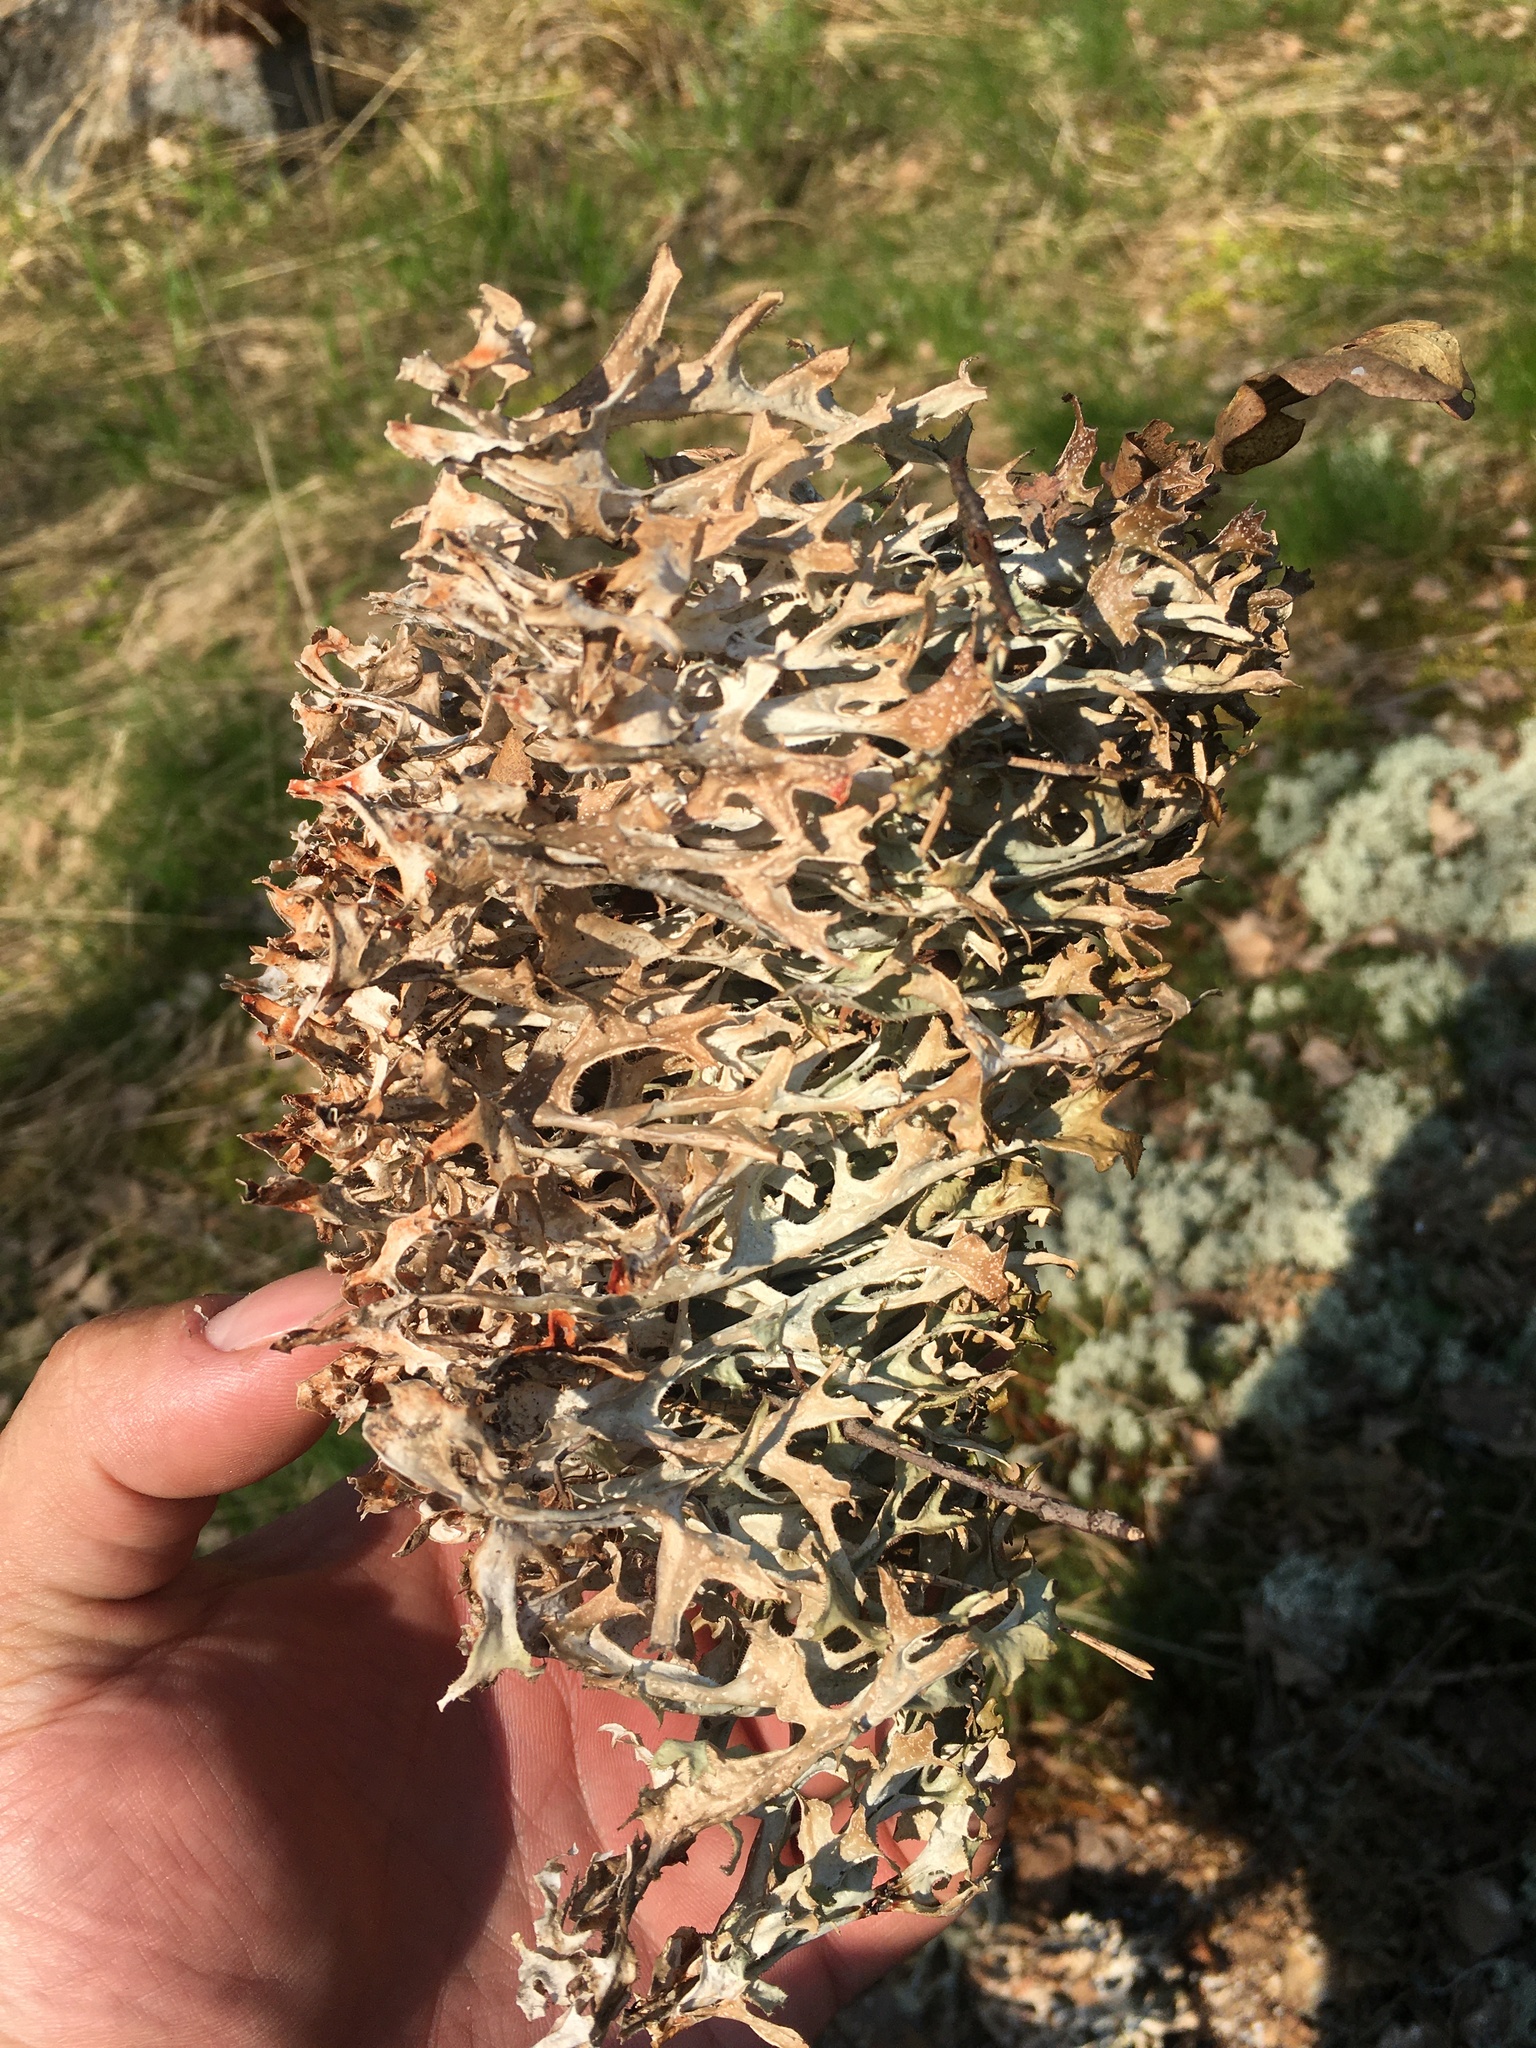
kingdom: Fungi
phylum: Ascomycota
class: Lecanoromycetes
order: Lecanorales
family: Parmeliaceae
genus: Cetraria
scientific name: Cetraria islandica
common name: Iceland lichen
